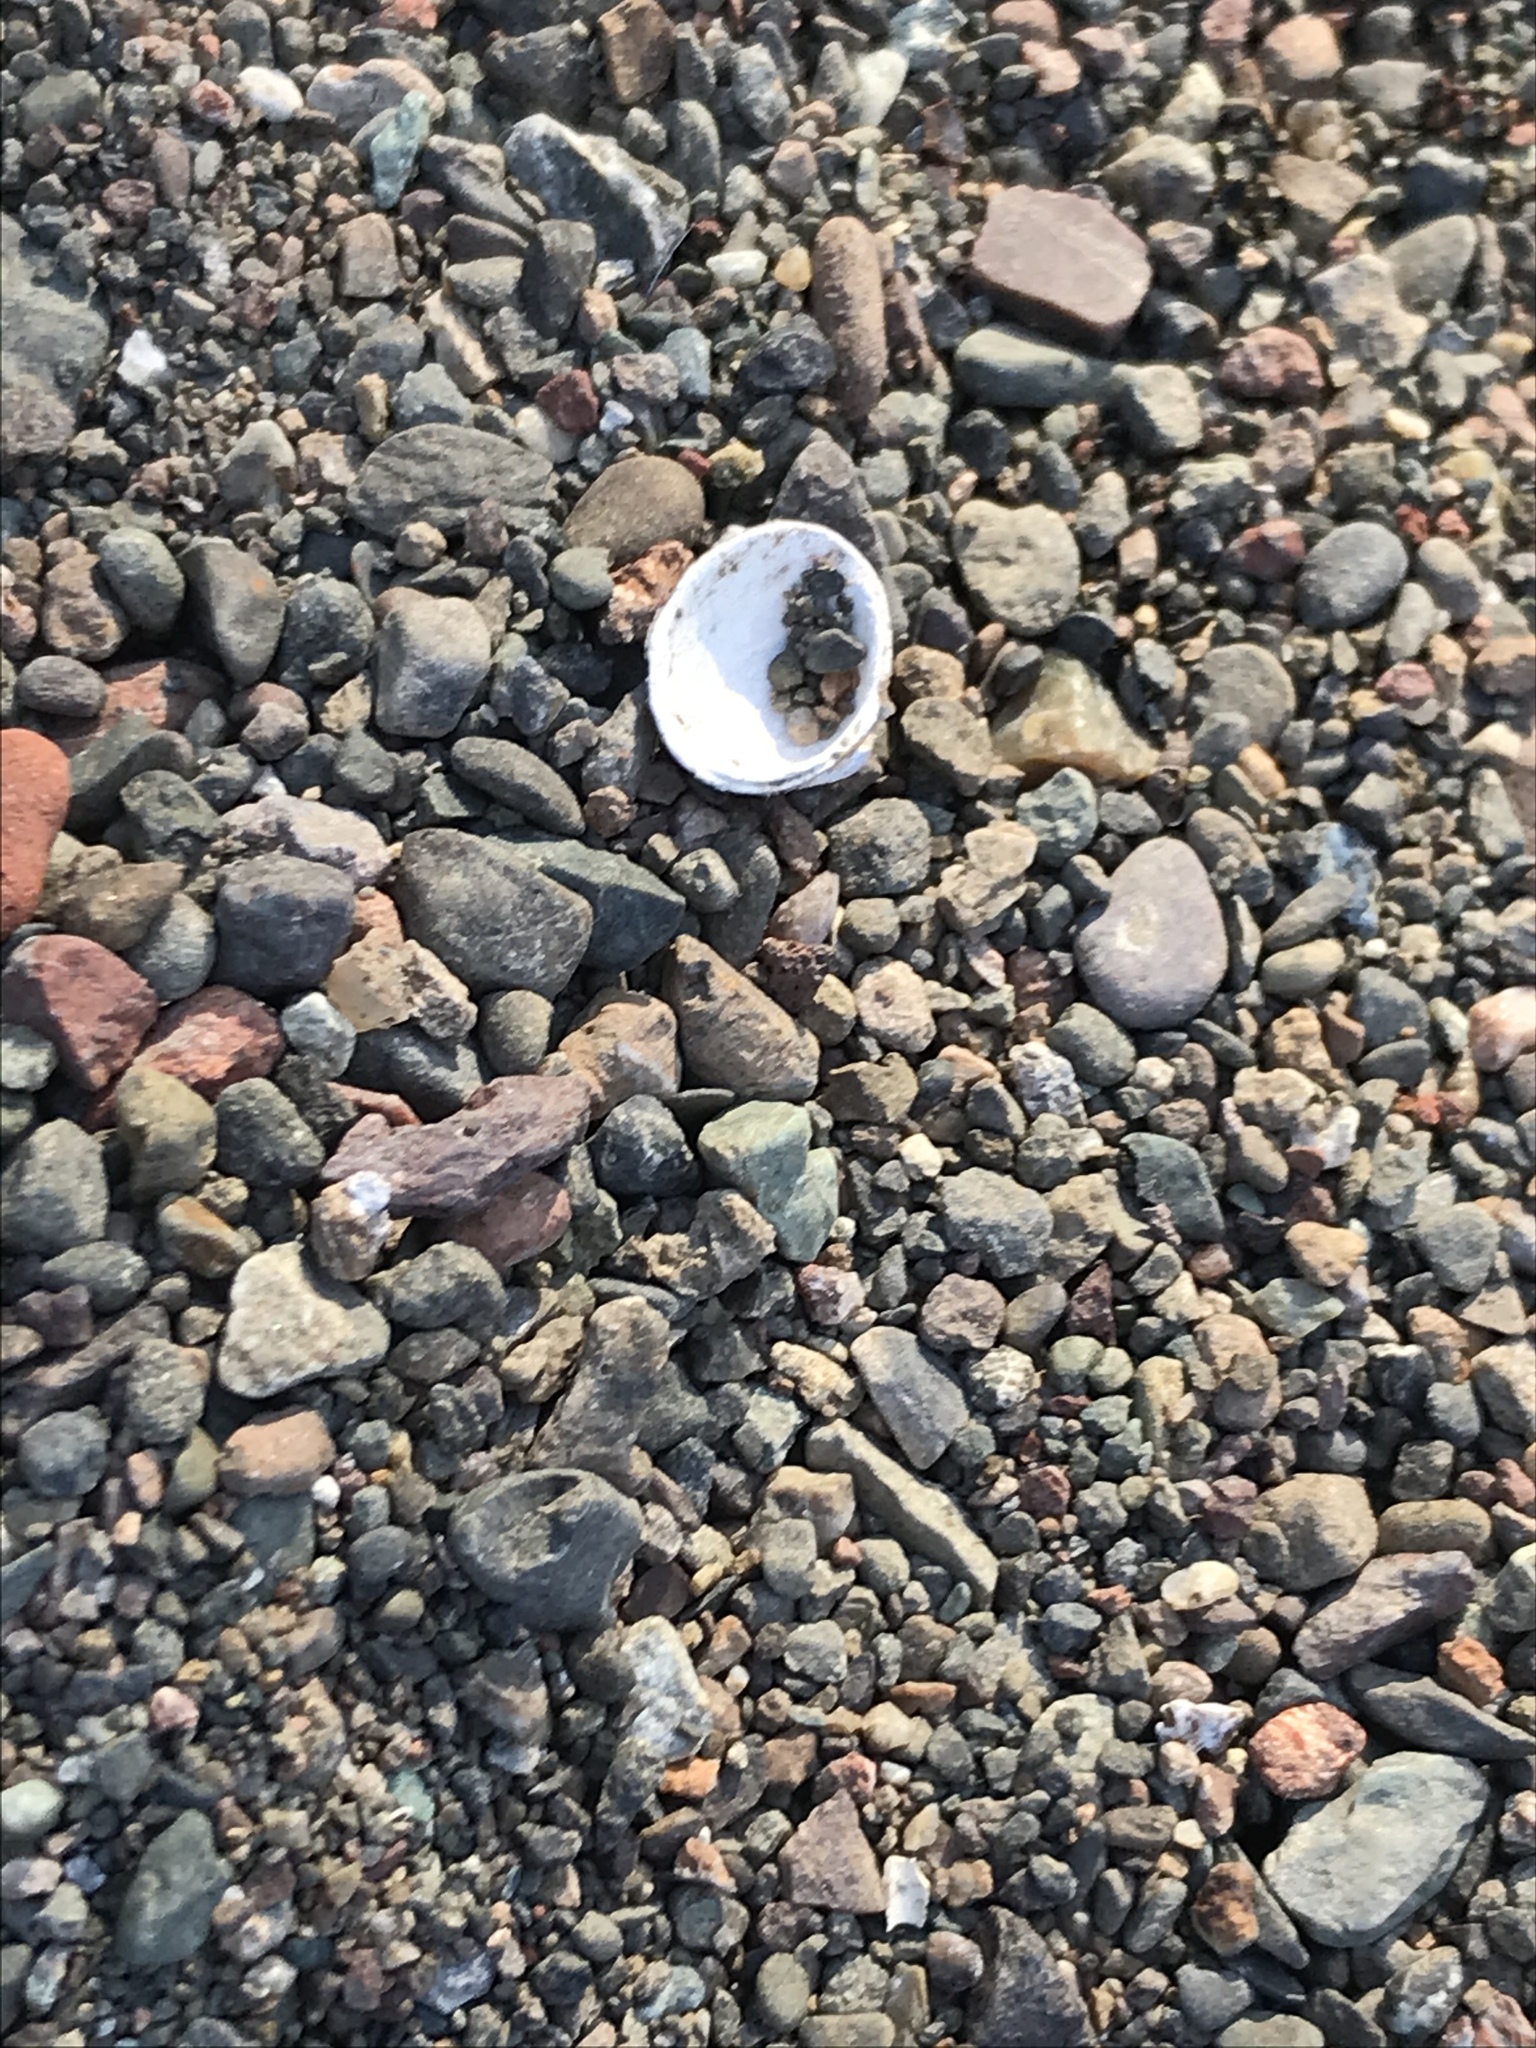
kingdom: Animalia
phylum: Mollusca
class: Bivalvia
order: Venerida
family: Cyrenidae
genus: Corbicula
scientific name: Corbicula fluminea
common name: Asian clam
